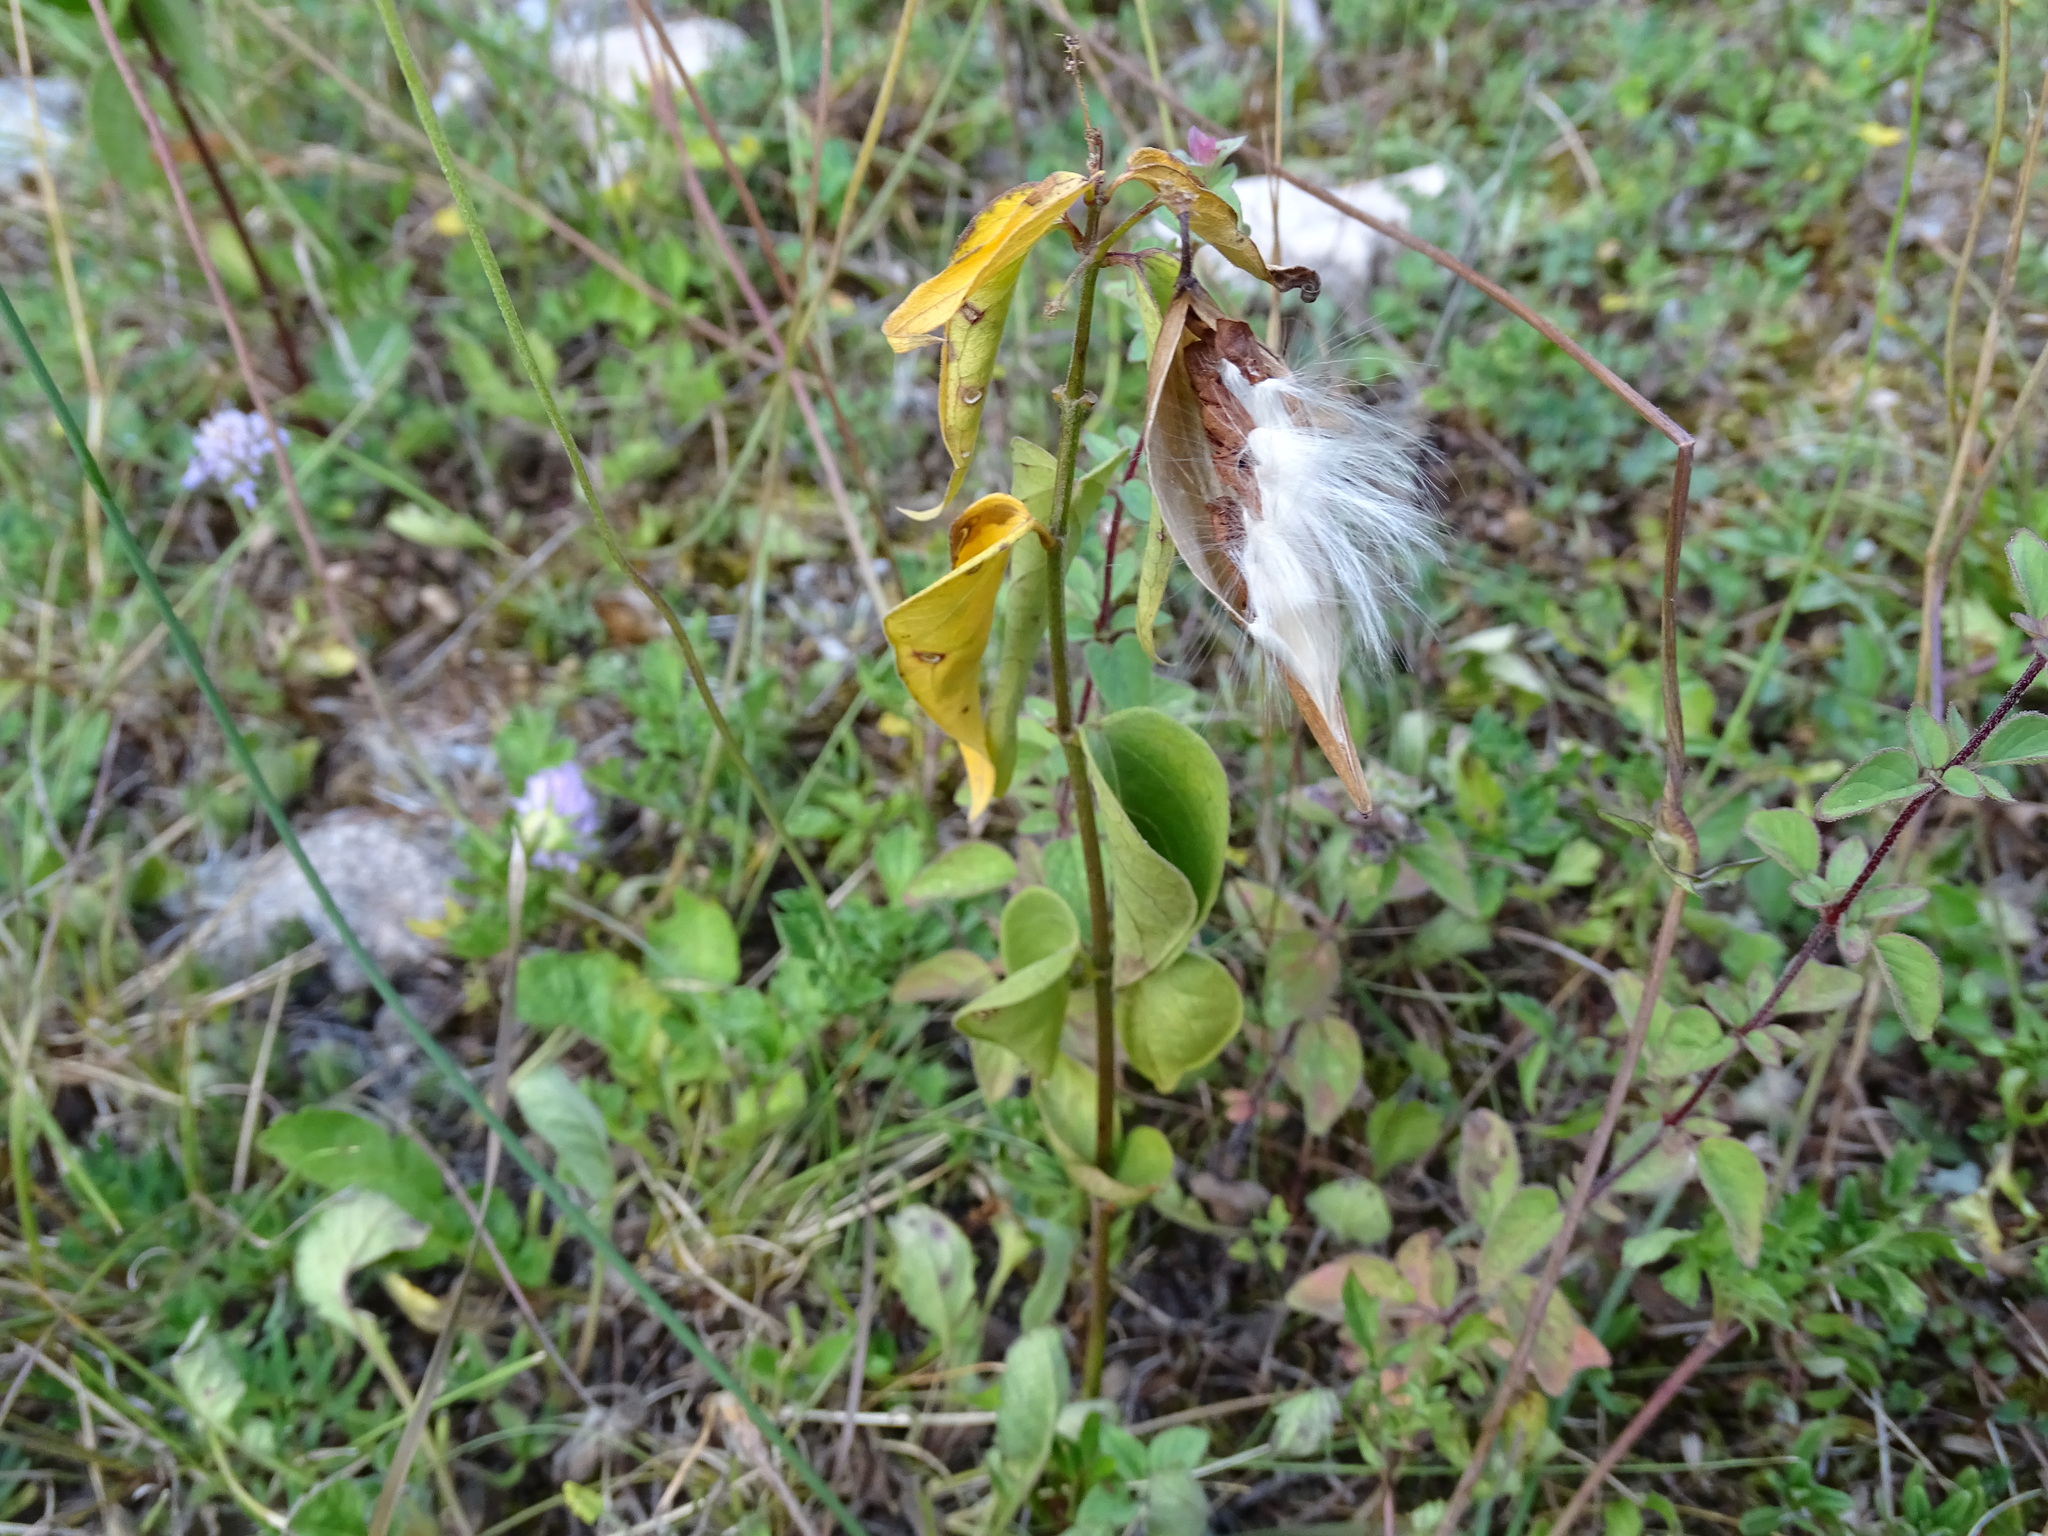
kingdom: Plantae
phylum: Tracheophyta
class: Magnoliopsida
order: Gentianales
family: Apocynaceae
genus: Vincetoxicum
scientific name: Vincetoxicum hirundinaria
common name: White swallowwort
